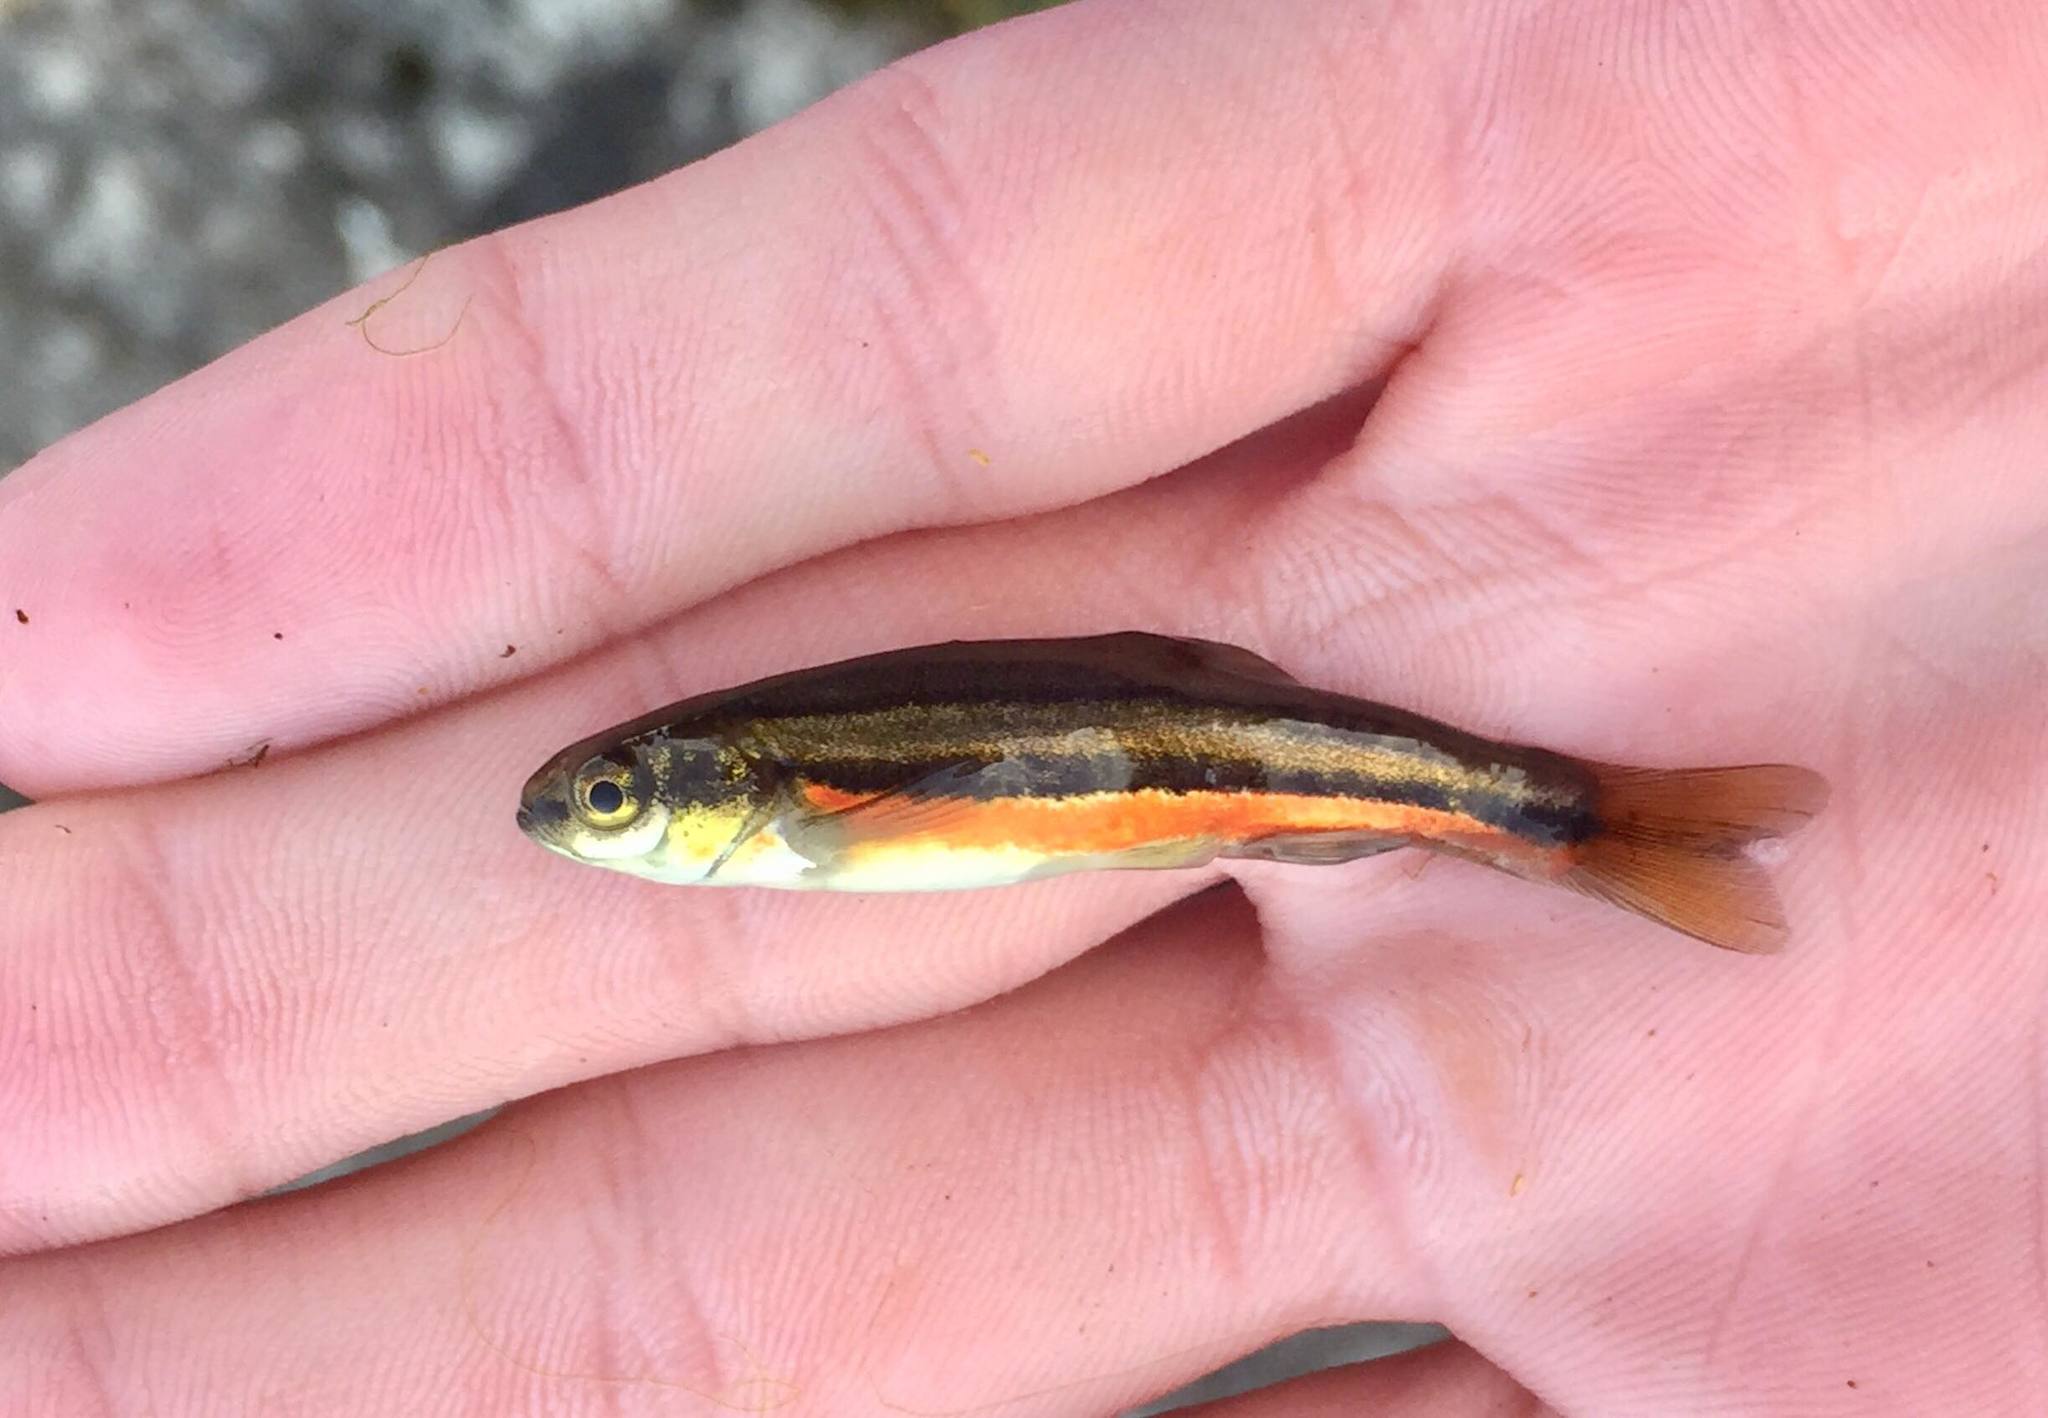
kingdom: Animalia
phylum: Chordata
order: Cypriniformes
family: Cyprinidae
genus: Chrosomus
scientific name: Chrosomus eos
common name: Northern redbelly dace
